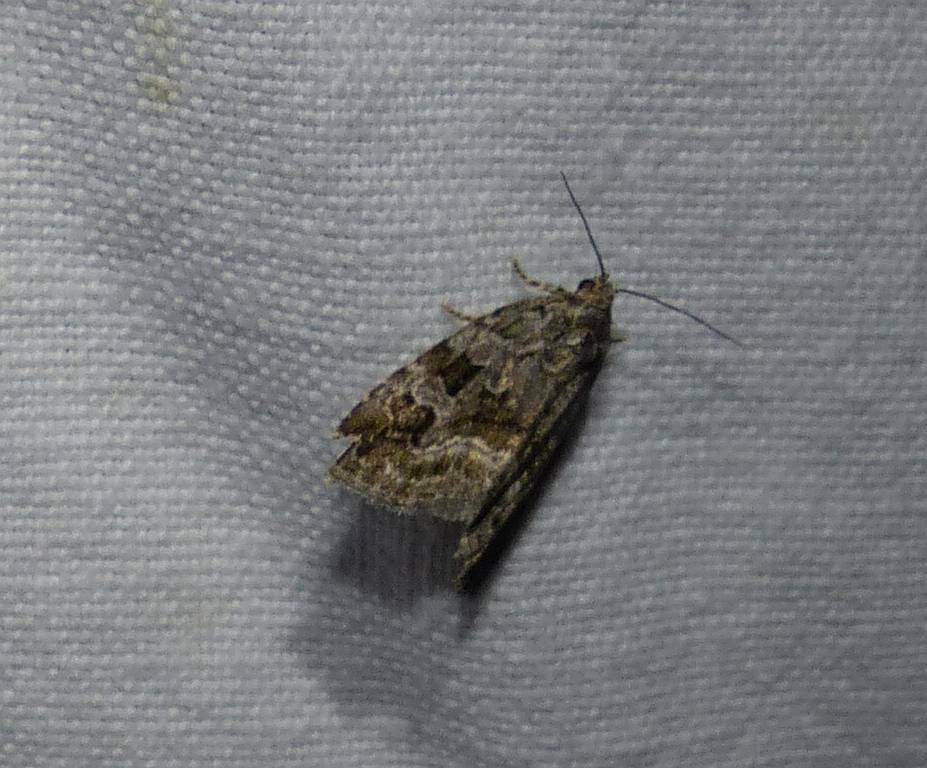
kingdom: Animalia
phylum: Arthropoda
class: Insecta
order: Lepidoptera
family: Noctuidae
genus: Protodeltote
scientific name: Protodeltote muscosula
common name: Large mossy glyph
